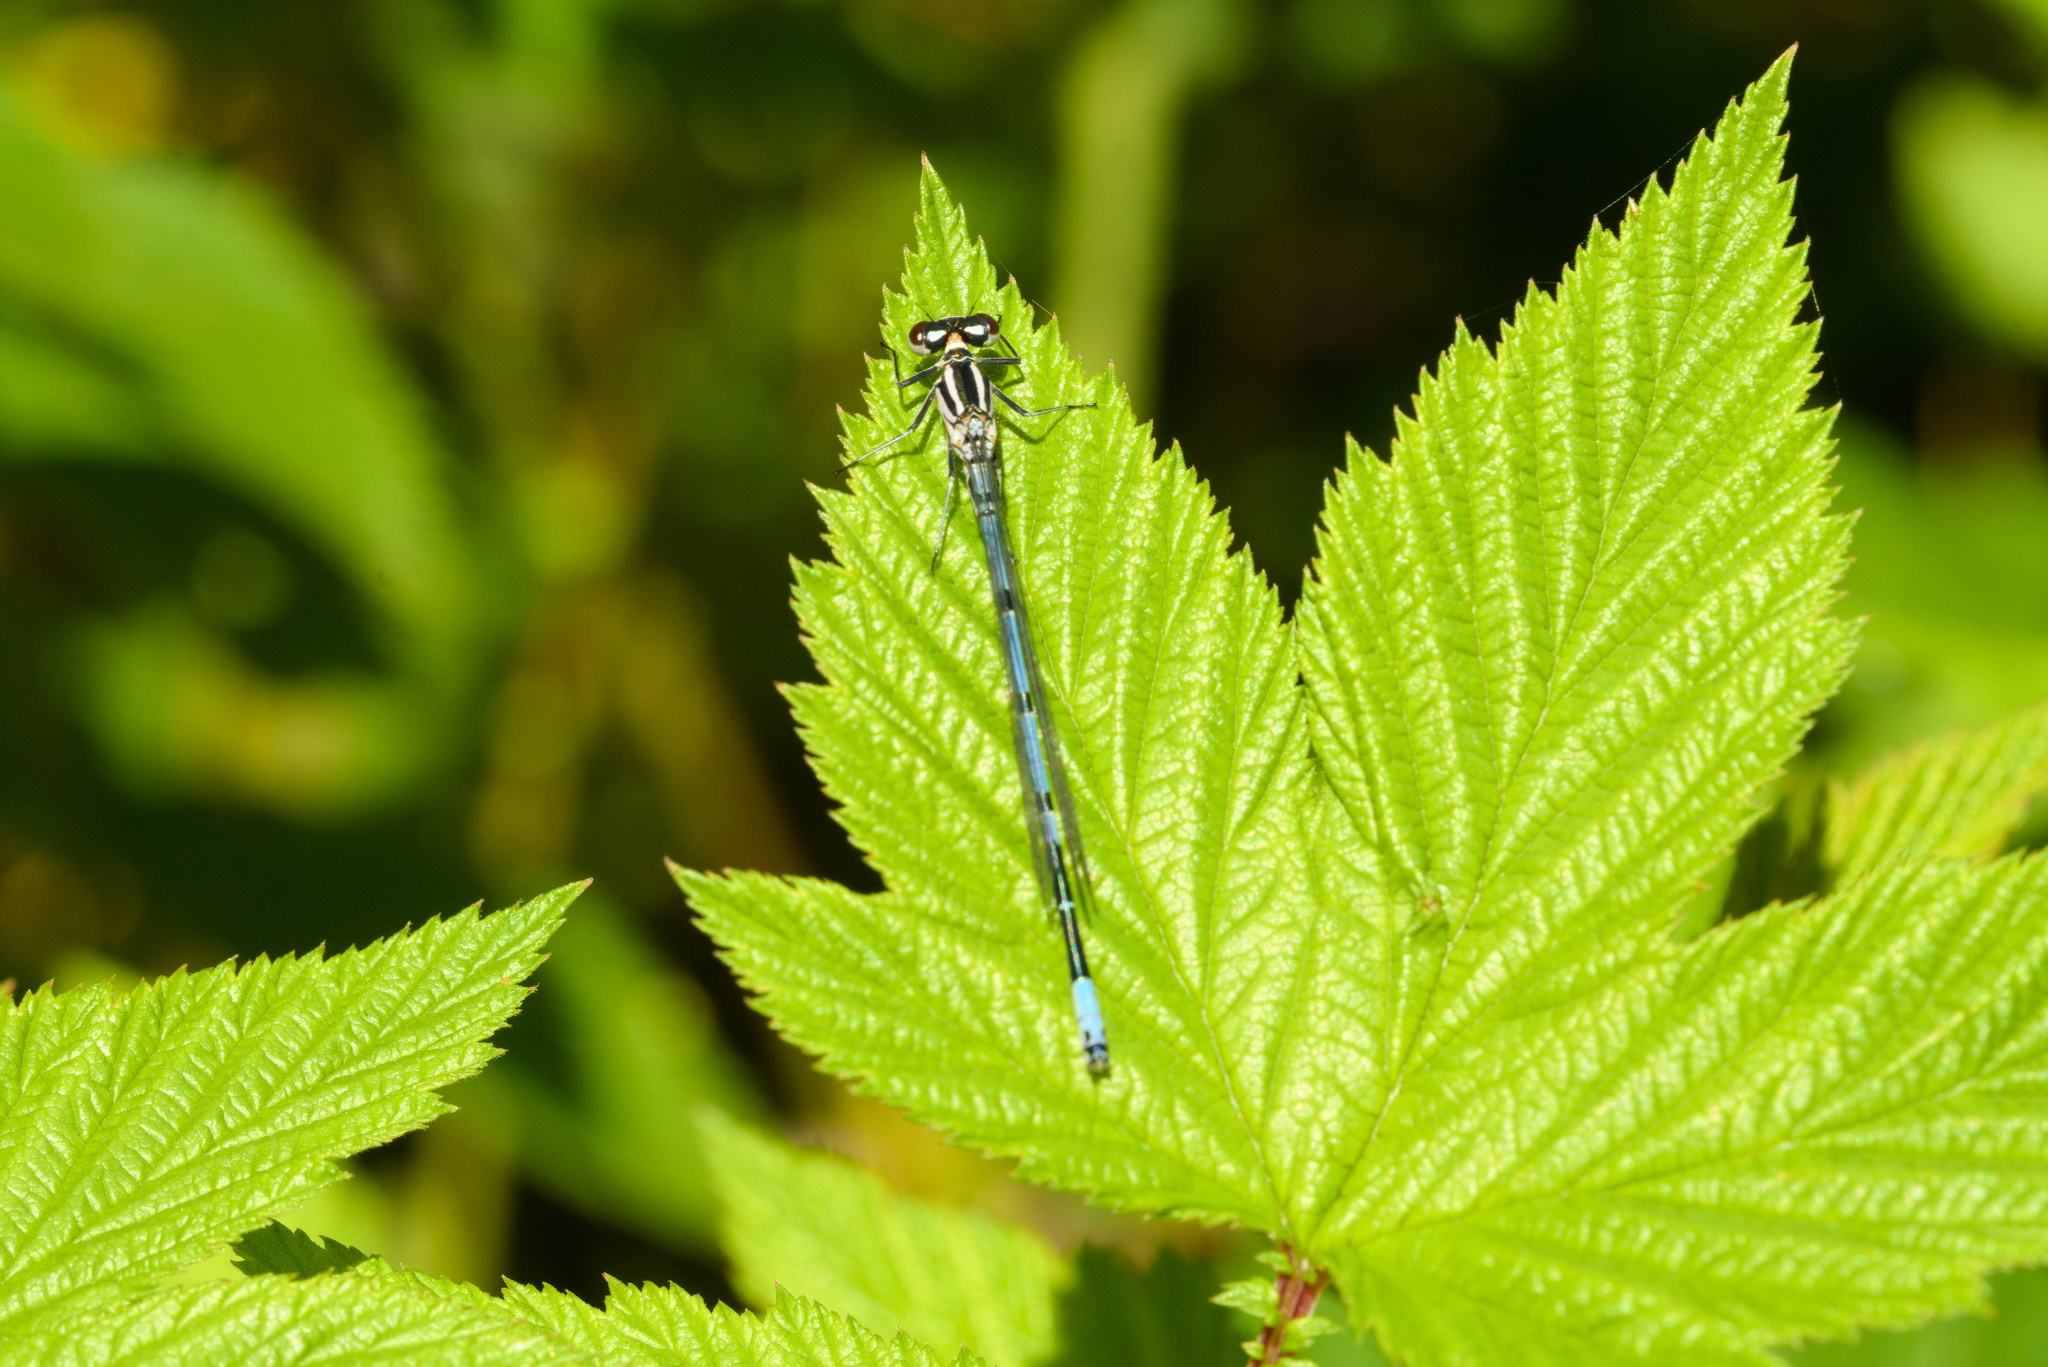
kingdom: Animalia
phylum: Arthropoda
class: Insecta
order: Odonata
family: Coenagrionidae
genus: Coenagrion
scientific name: Coenagrion puella
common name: Azure damselfly
